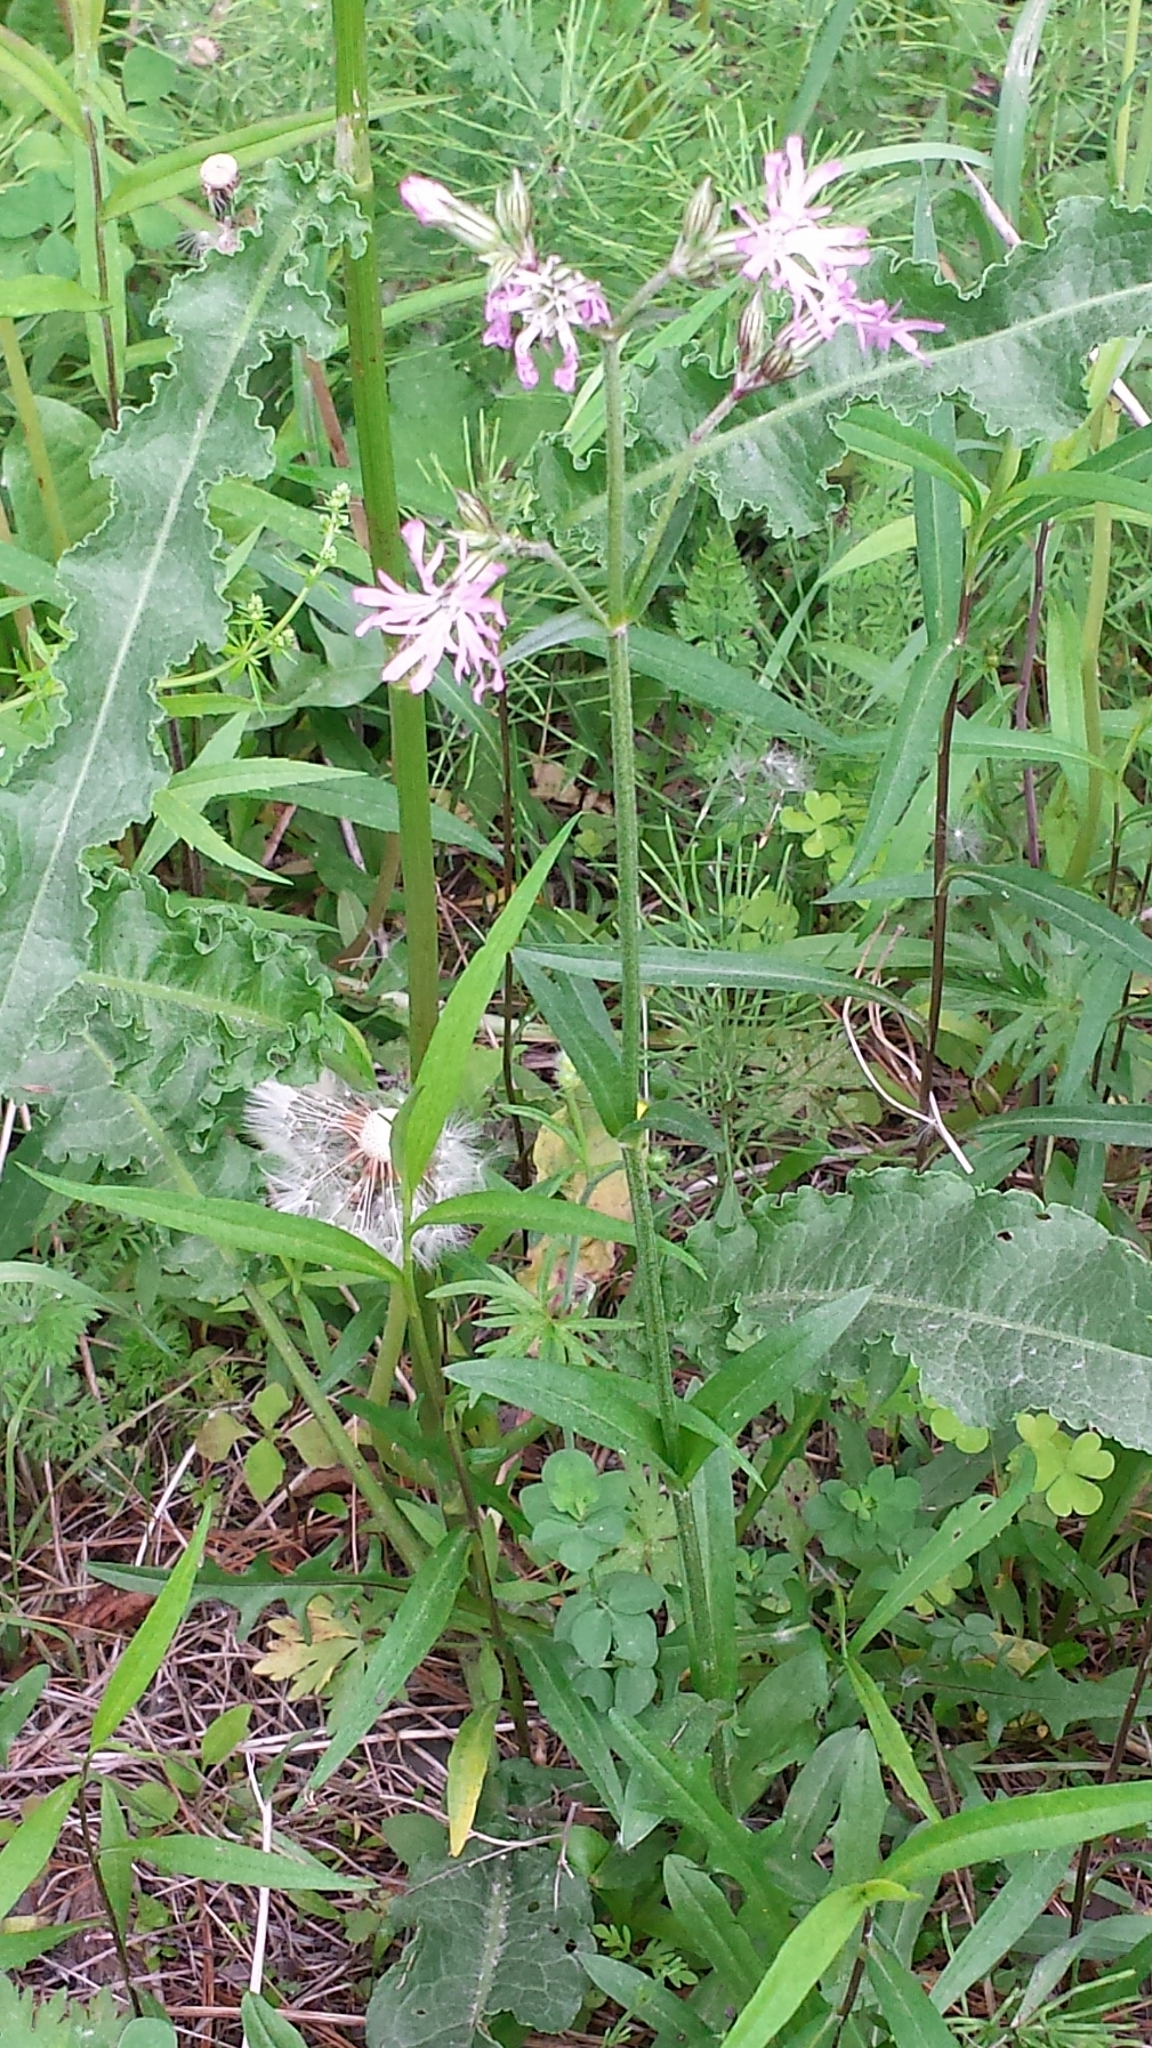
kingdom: Plantae
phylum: Tracheophyta
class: Magnoliopsida
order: Caryophyllales
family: Caryophyllaceae
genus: Silene
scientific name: Silene flos-cuculi
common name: Ragged-robin
